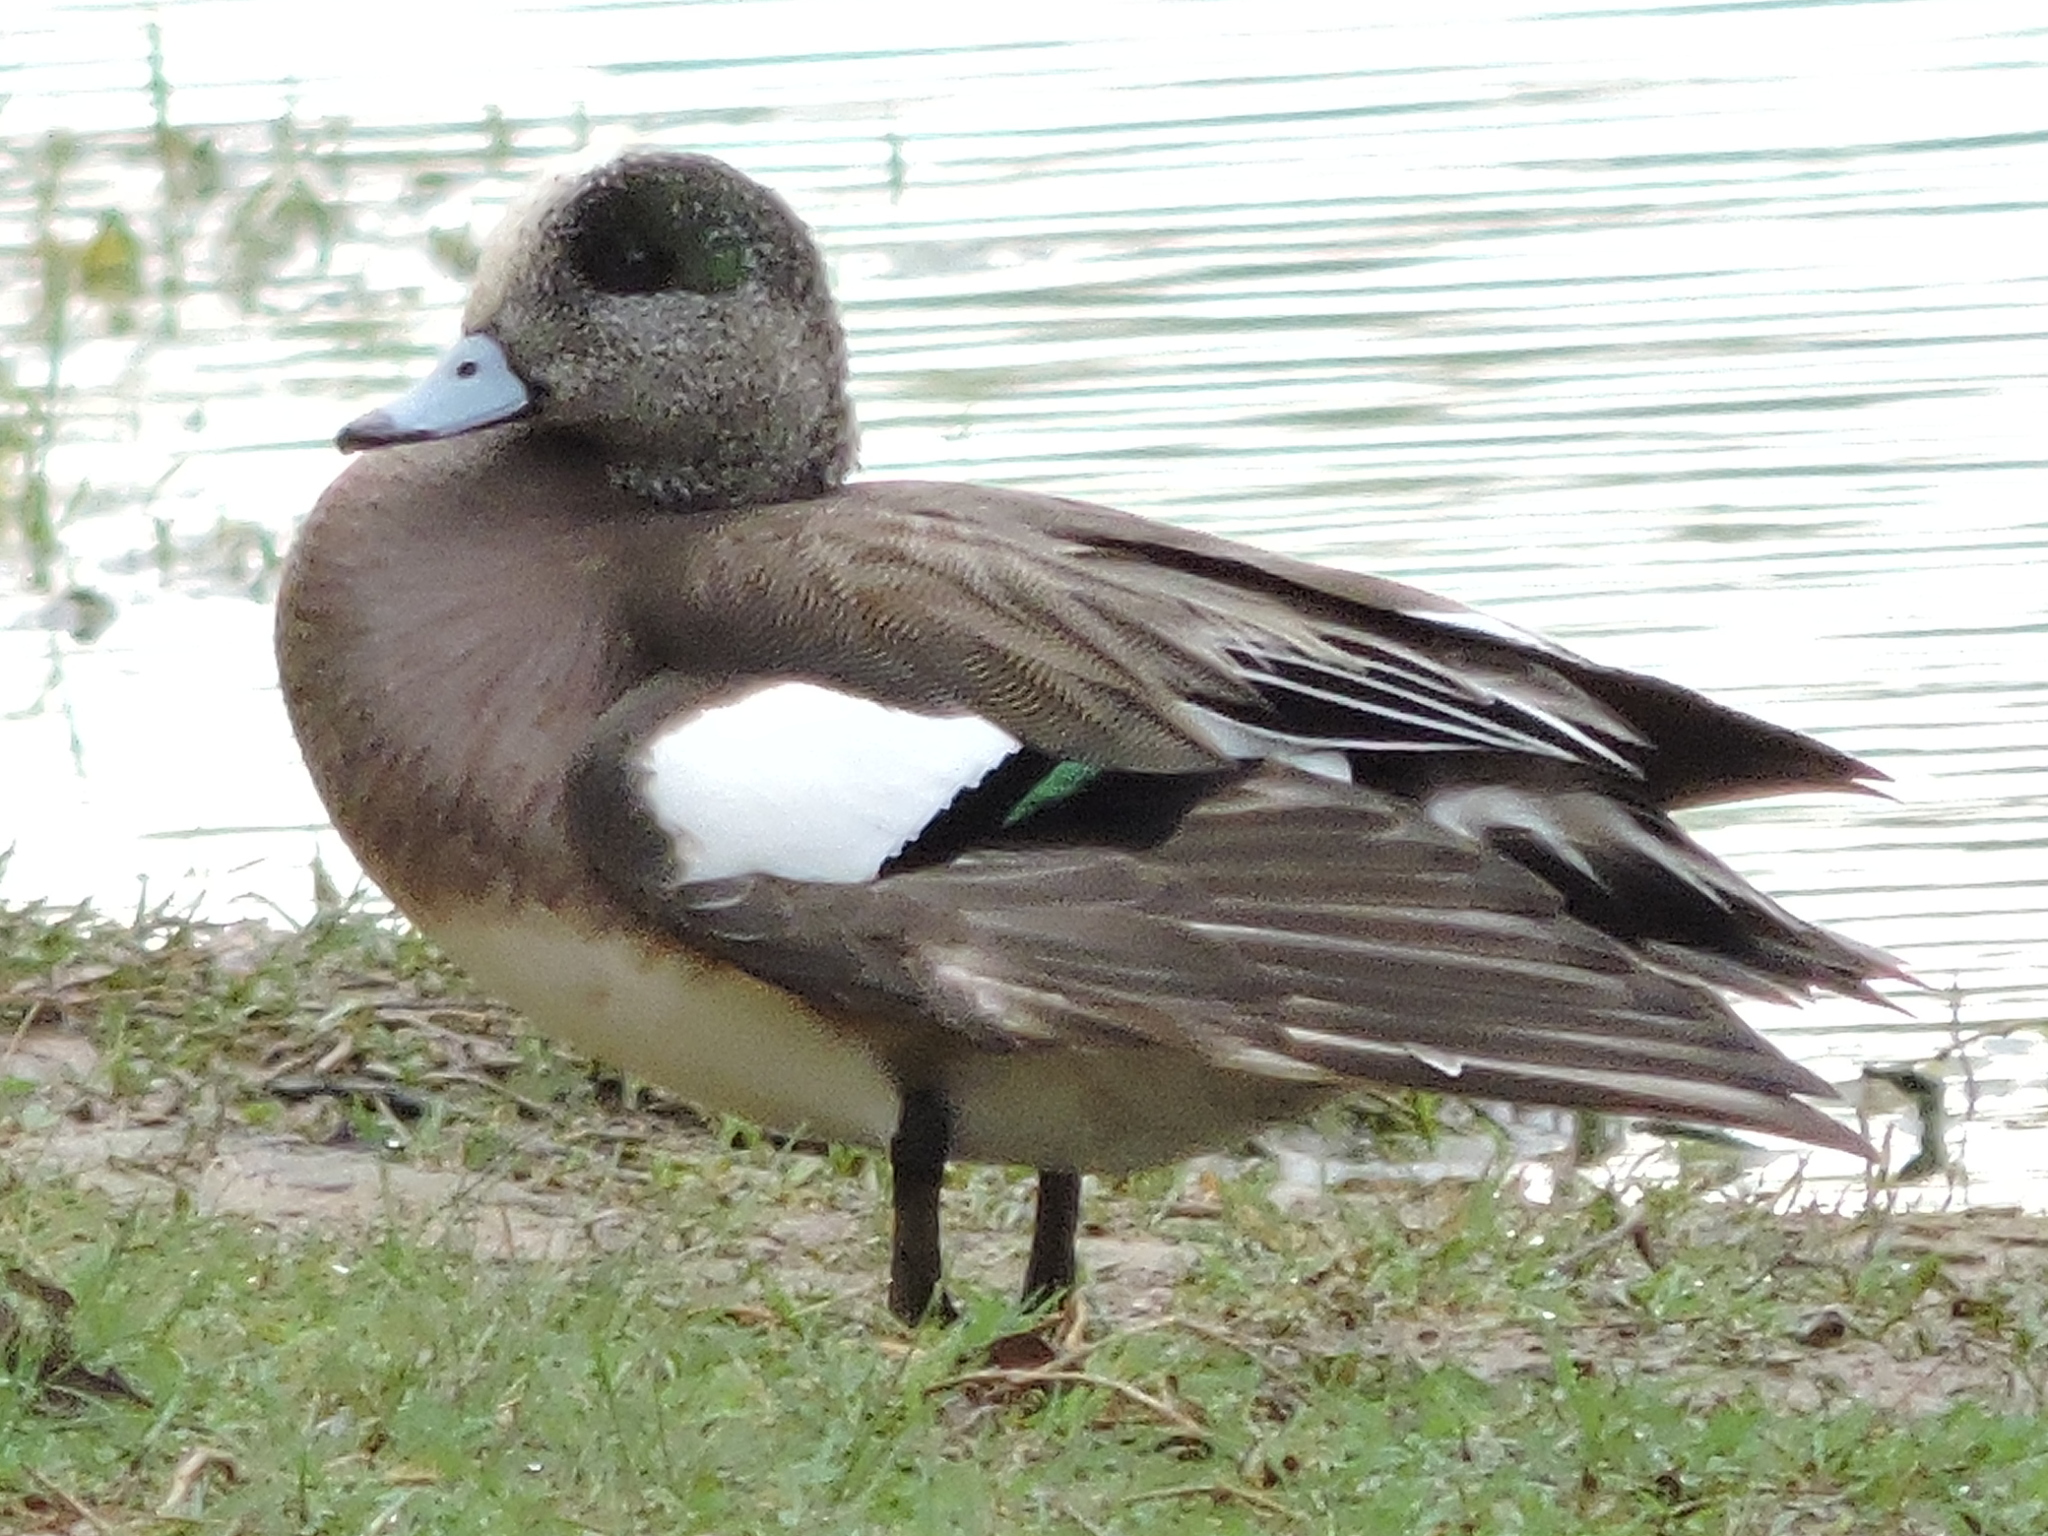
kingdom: Animalia
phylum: Chordata
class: Aves
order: Anseriformes
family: Anatidae
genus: Mareca
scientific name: Mareca americana
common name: American wigeon
